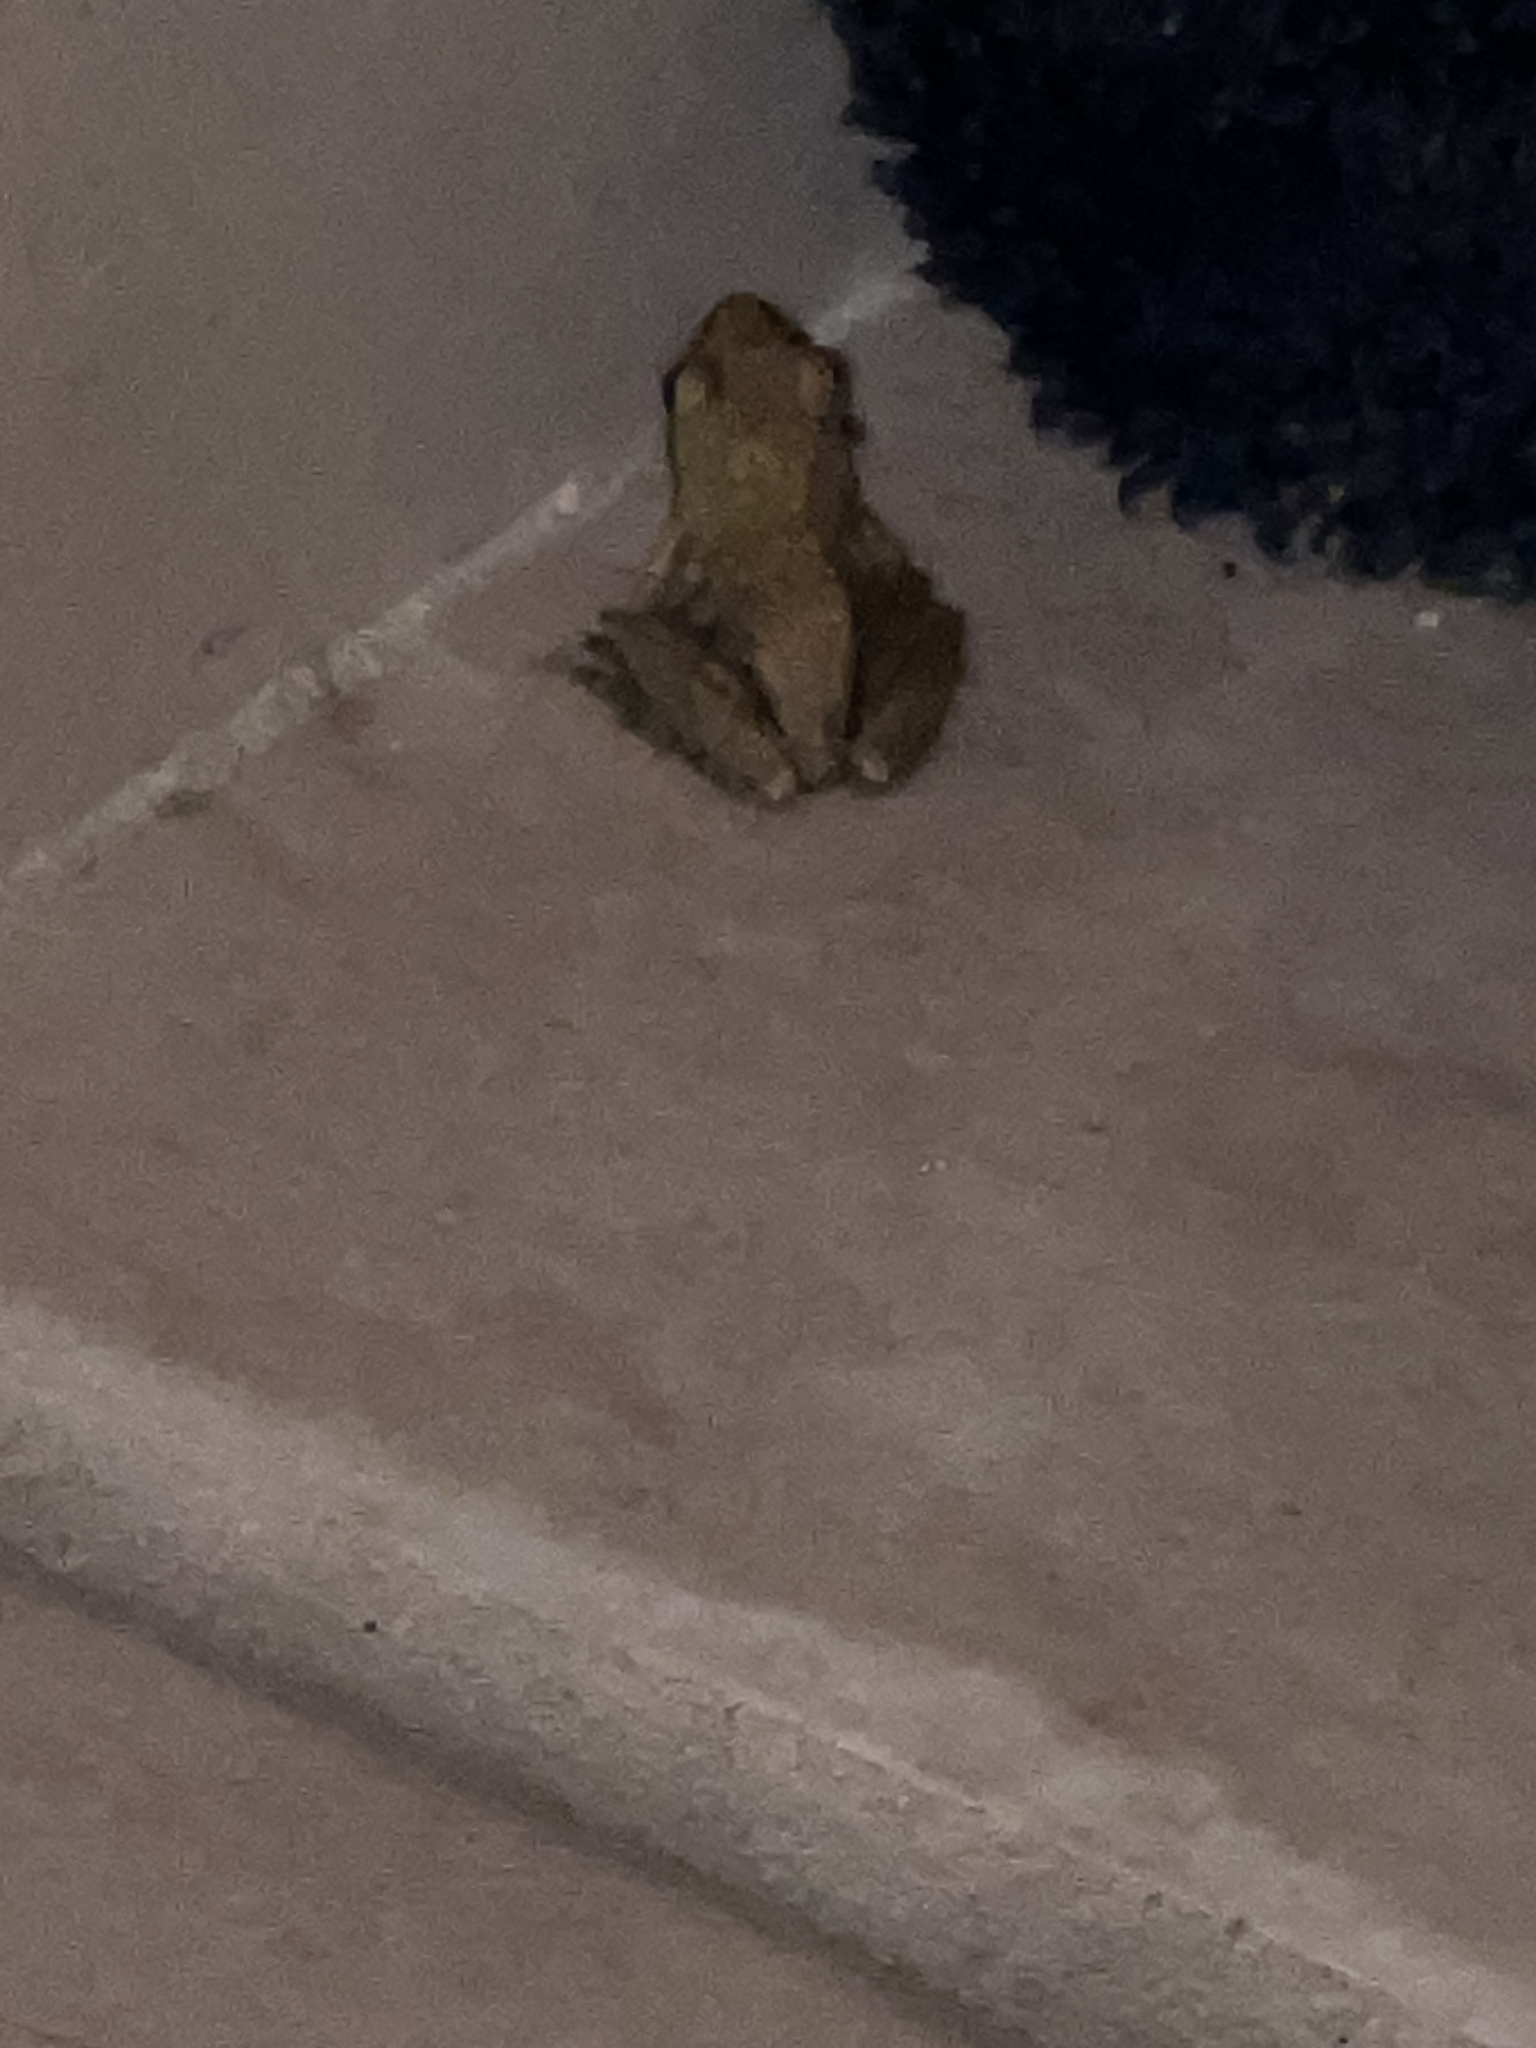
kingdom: Animalia
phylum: Chordata
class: Amphibia
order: Anura
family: Hylidae
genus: Pseudacris
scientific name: Pseudacris regilla
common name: Pacific chorus frog
